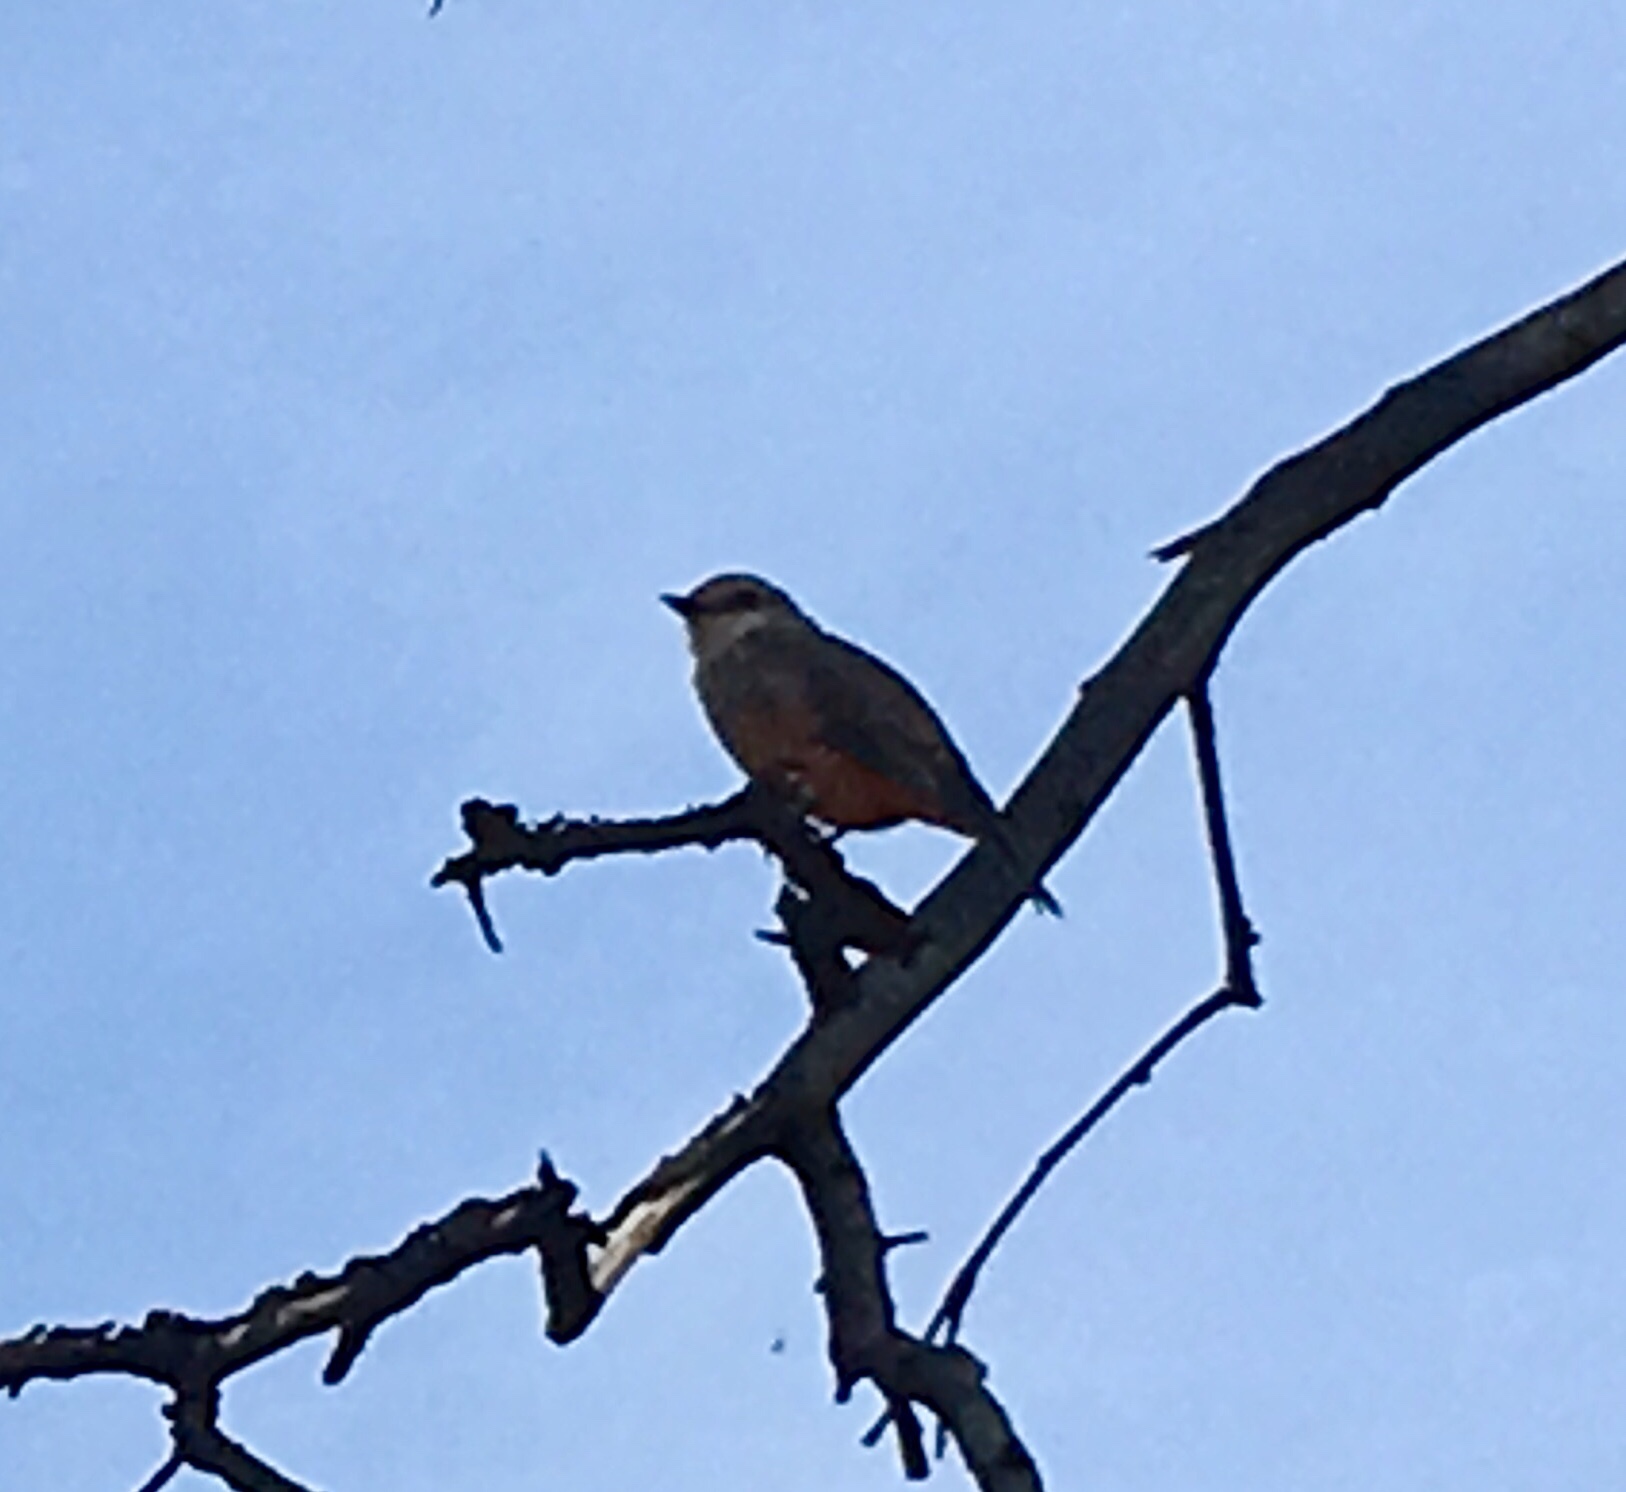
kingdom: Animalia
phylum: Chordata
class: Aves
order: Passeriformes
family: Tyrannidae
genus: Muscisaxicola
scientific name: Muscisaxicola capistratus
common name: Cinnamon-bellied ground tyrant
